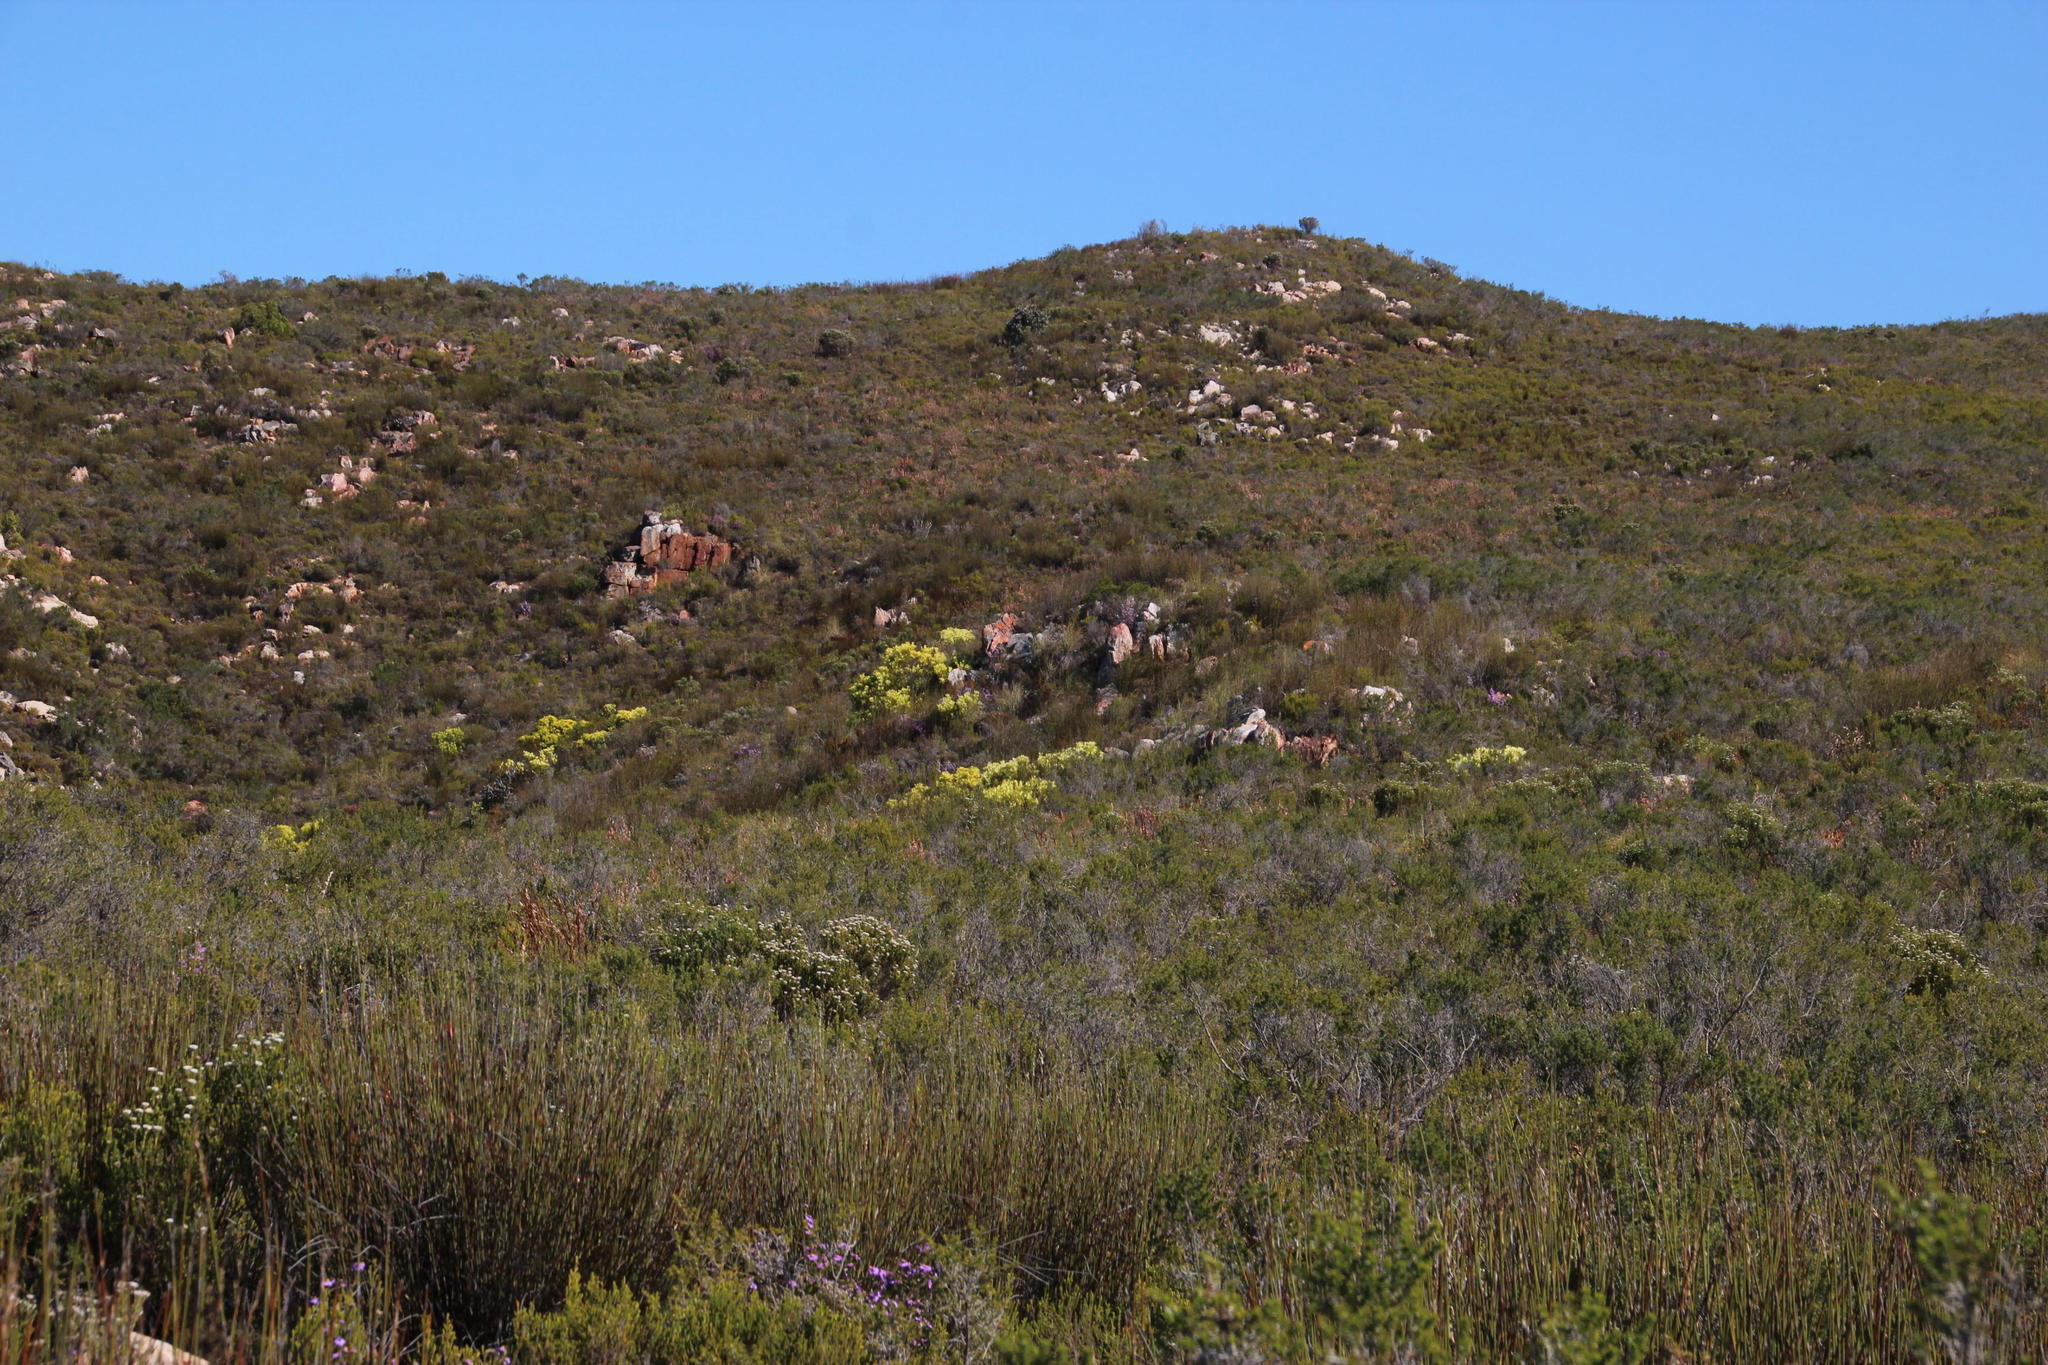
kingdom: Plantae
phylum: Tracheophyta
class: Magnoliopsida
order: Proteales
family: Proteaceae
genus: Leucadendron
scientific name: Leucadendron salignum
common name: Common sunshine conebush
